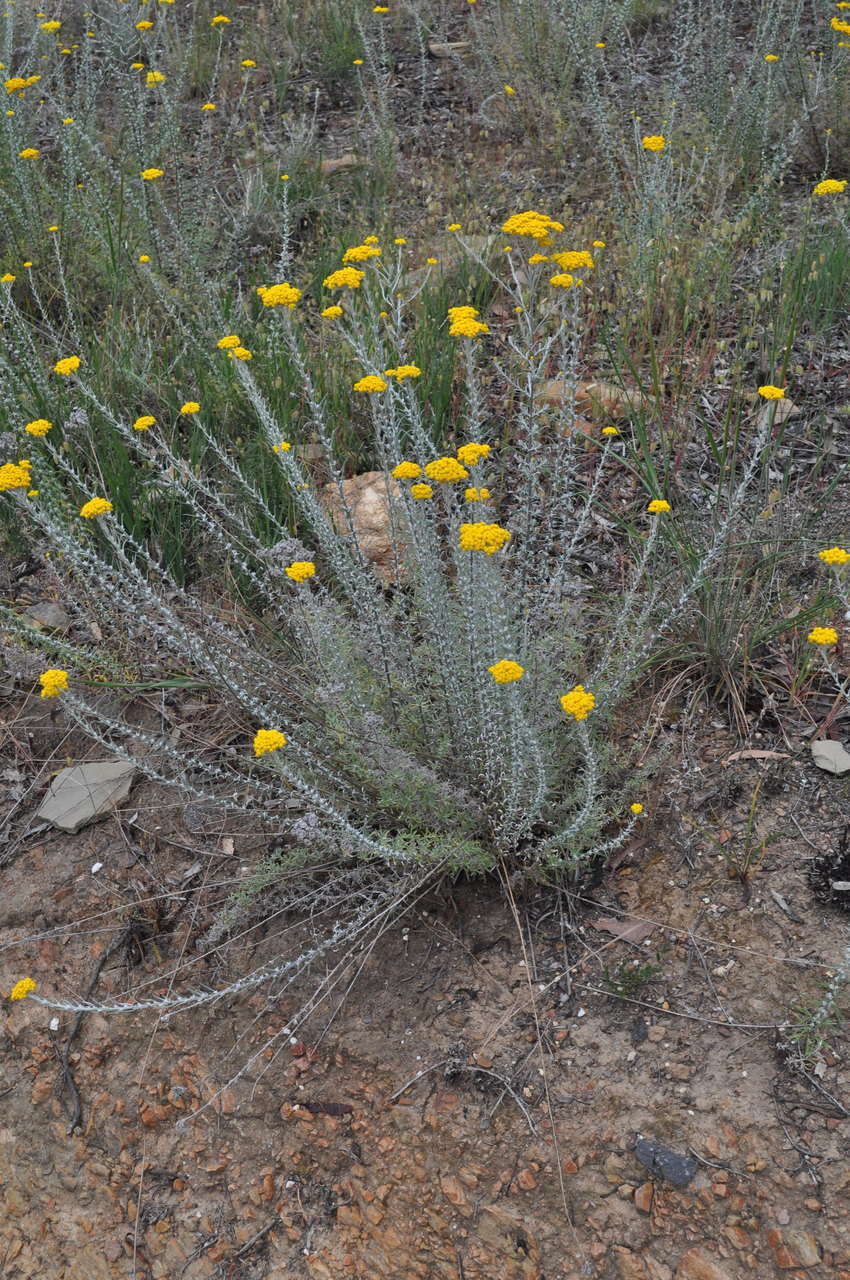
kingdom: Plantae
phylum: Tracheophyta
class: Magnoliopsida
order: Asterales
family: Asteraceae
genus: Chrysocephalum
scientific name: Chrysocephalum semipapposum
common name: Clustered everlasting
